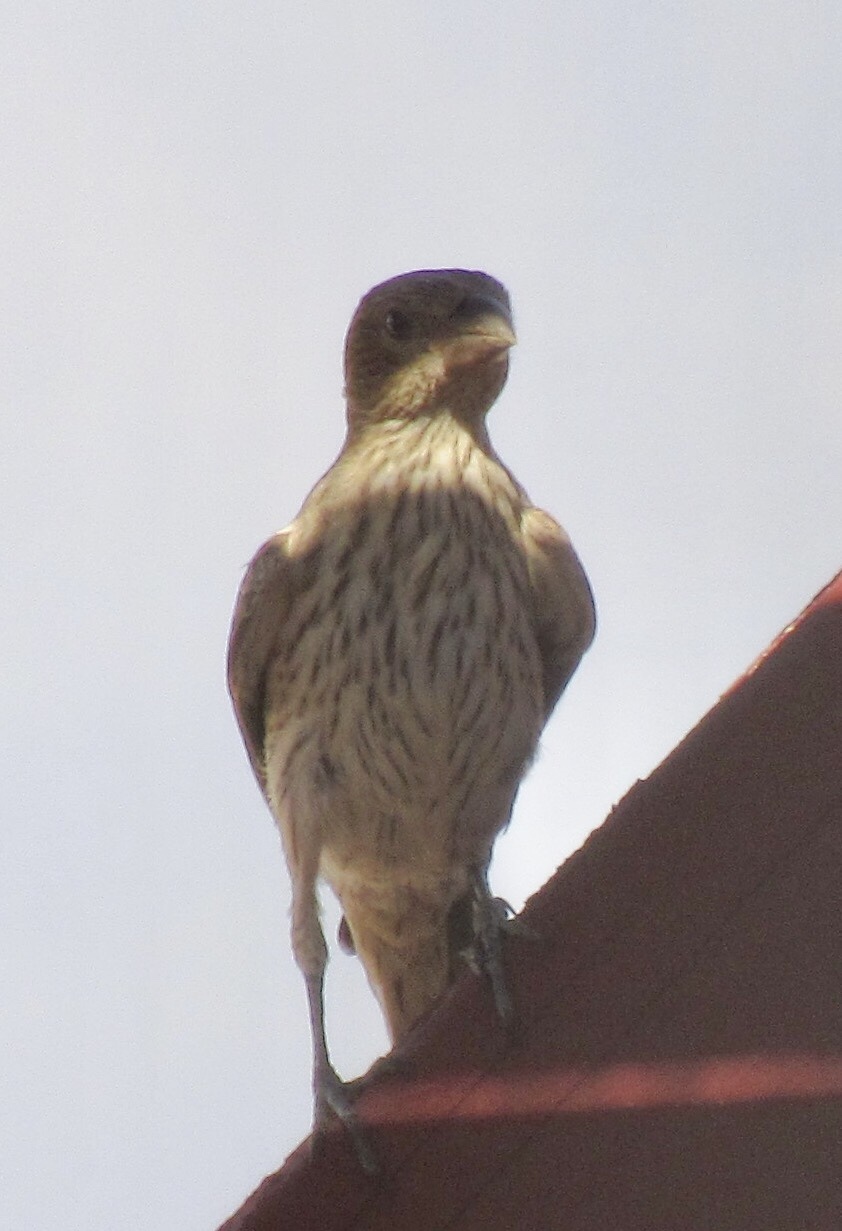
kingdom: Animalia
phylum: Chordata
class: Aves
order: Passeriformes
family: Fringillidae
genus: Haemorhous
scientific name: Haemorhous mexicanus
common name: House finch
